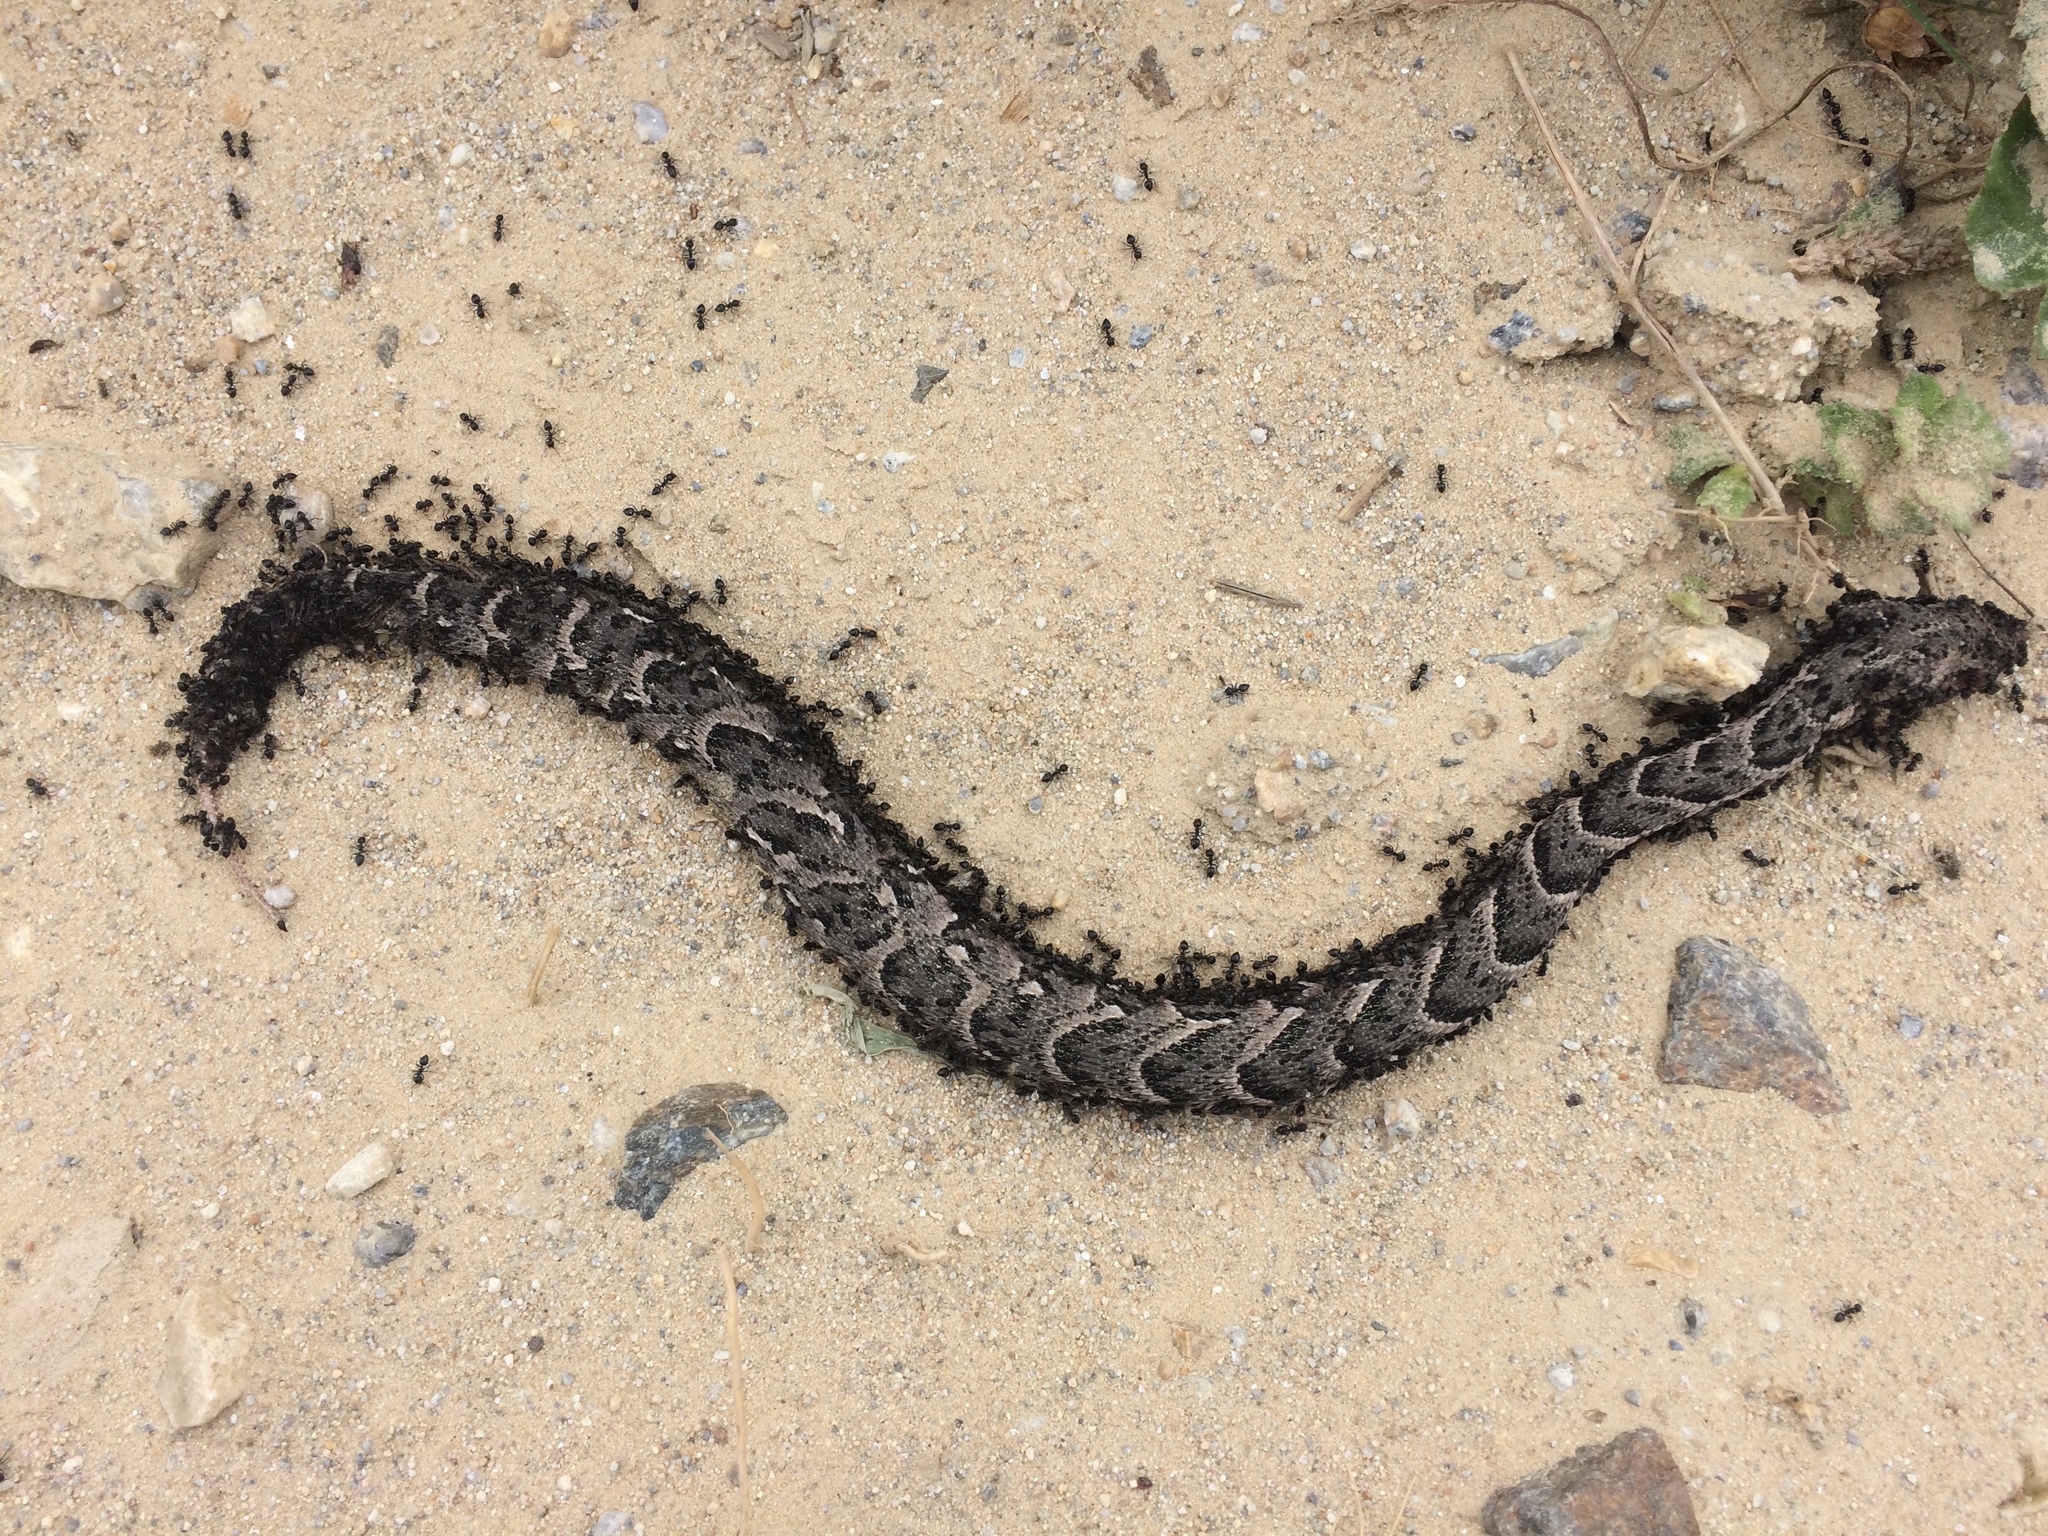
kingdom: Animalia
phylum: Chordata
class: Squamata
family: Viperidae
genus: Bitis
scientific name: Bitis arietans
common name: Puff adder
